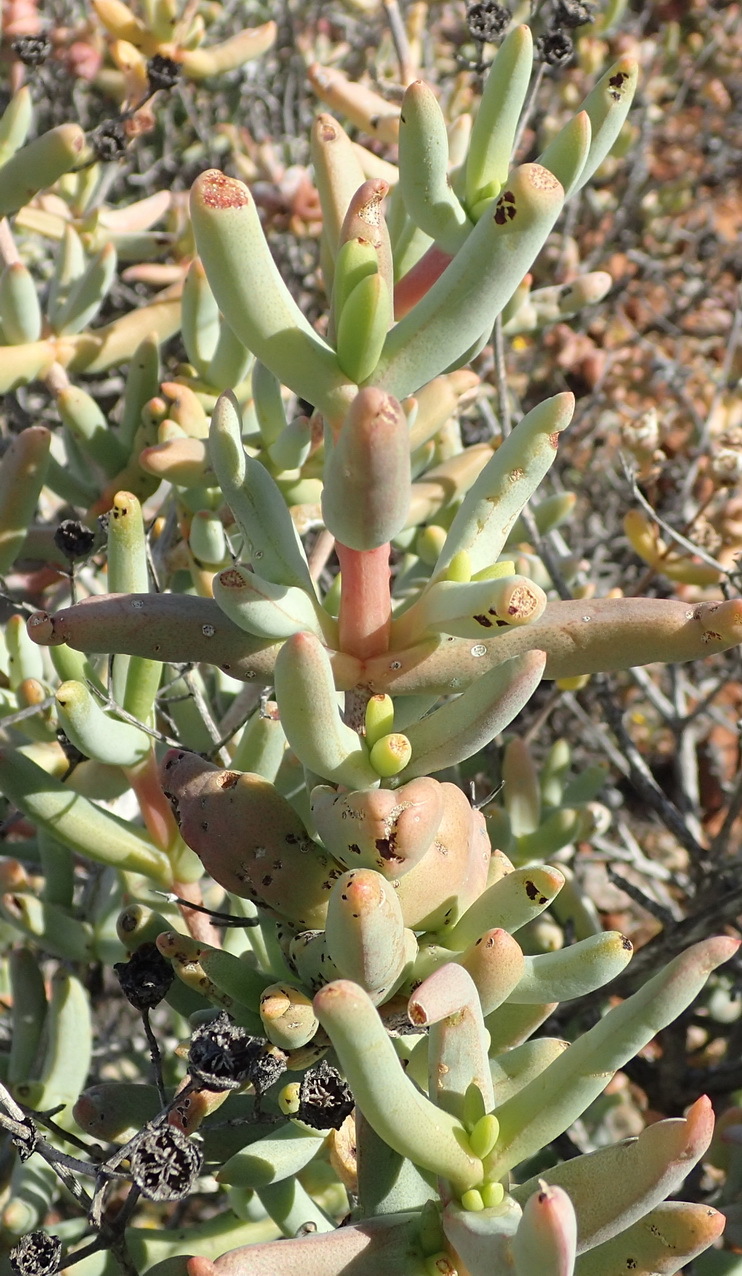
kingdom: Plantae
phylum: Tracheophyta
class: Magnoliopsida
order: Caryophyllales
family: Aizoaceae
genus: Stoeberia
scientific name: Stoeberia beetzii
